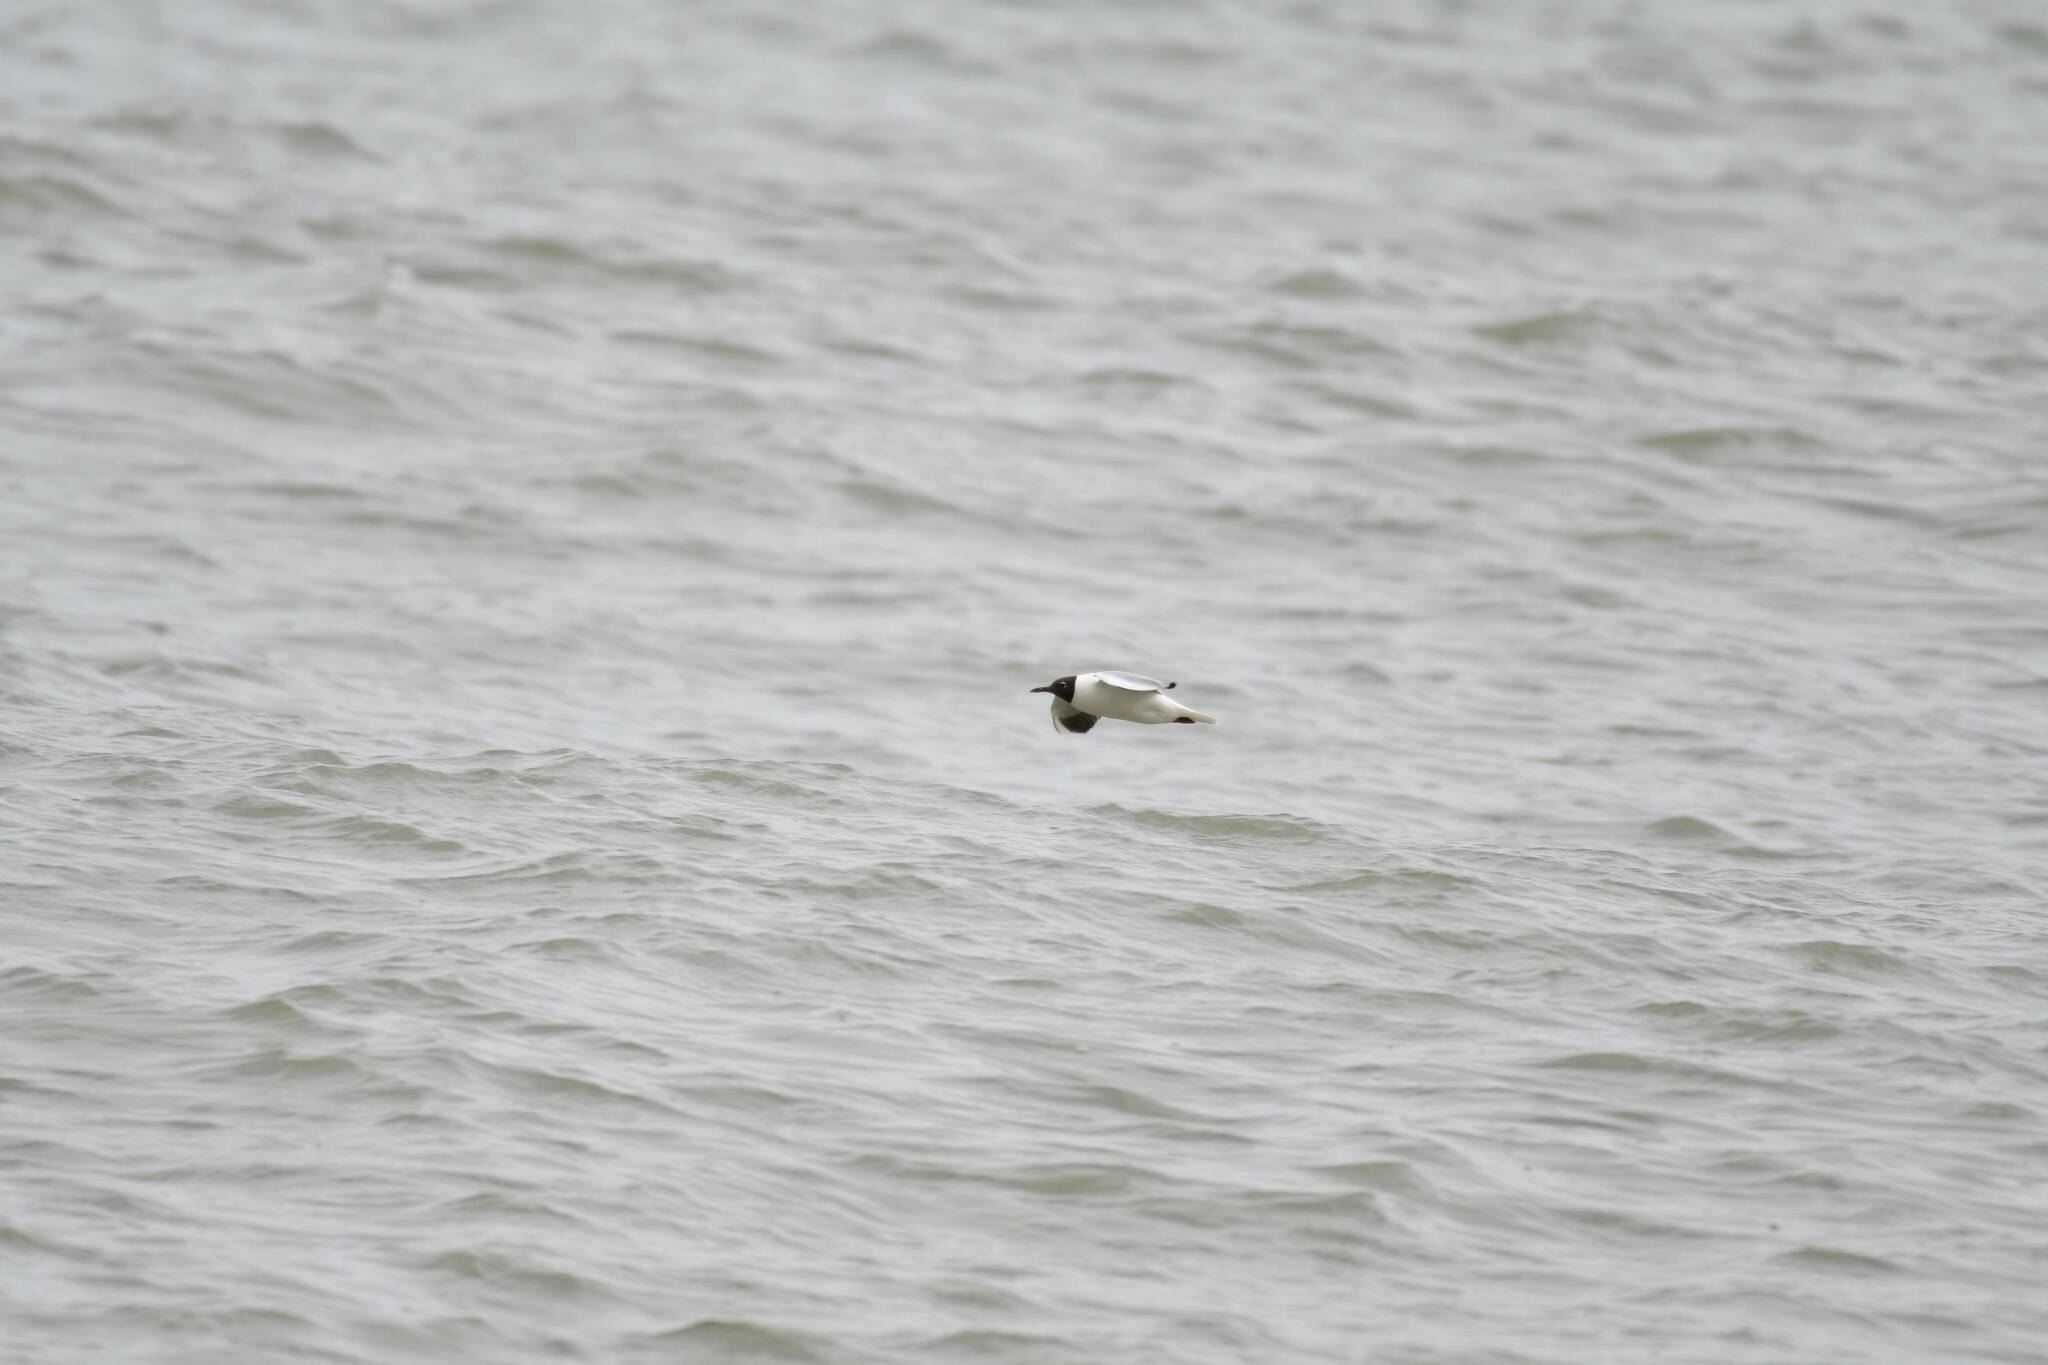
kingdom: Animalia
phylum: Chordata
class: Aves
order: Charadriiformes
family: Laridae
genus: Chroicocephalus
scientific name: Chroicocephalus ridibundus
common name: Black-headed gull
